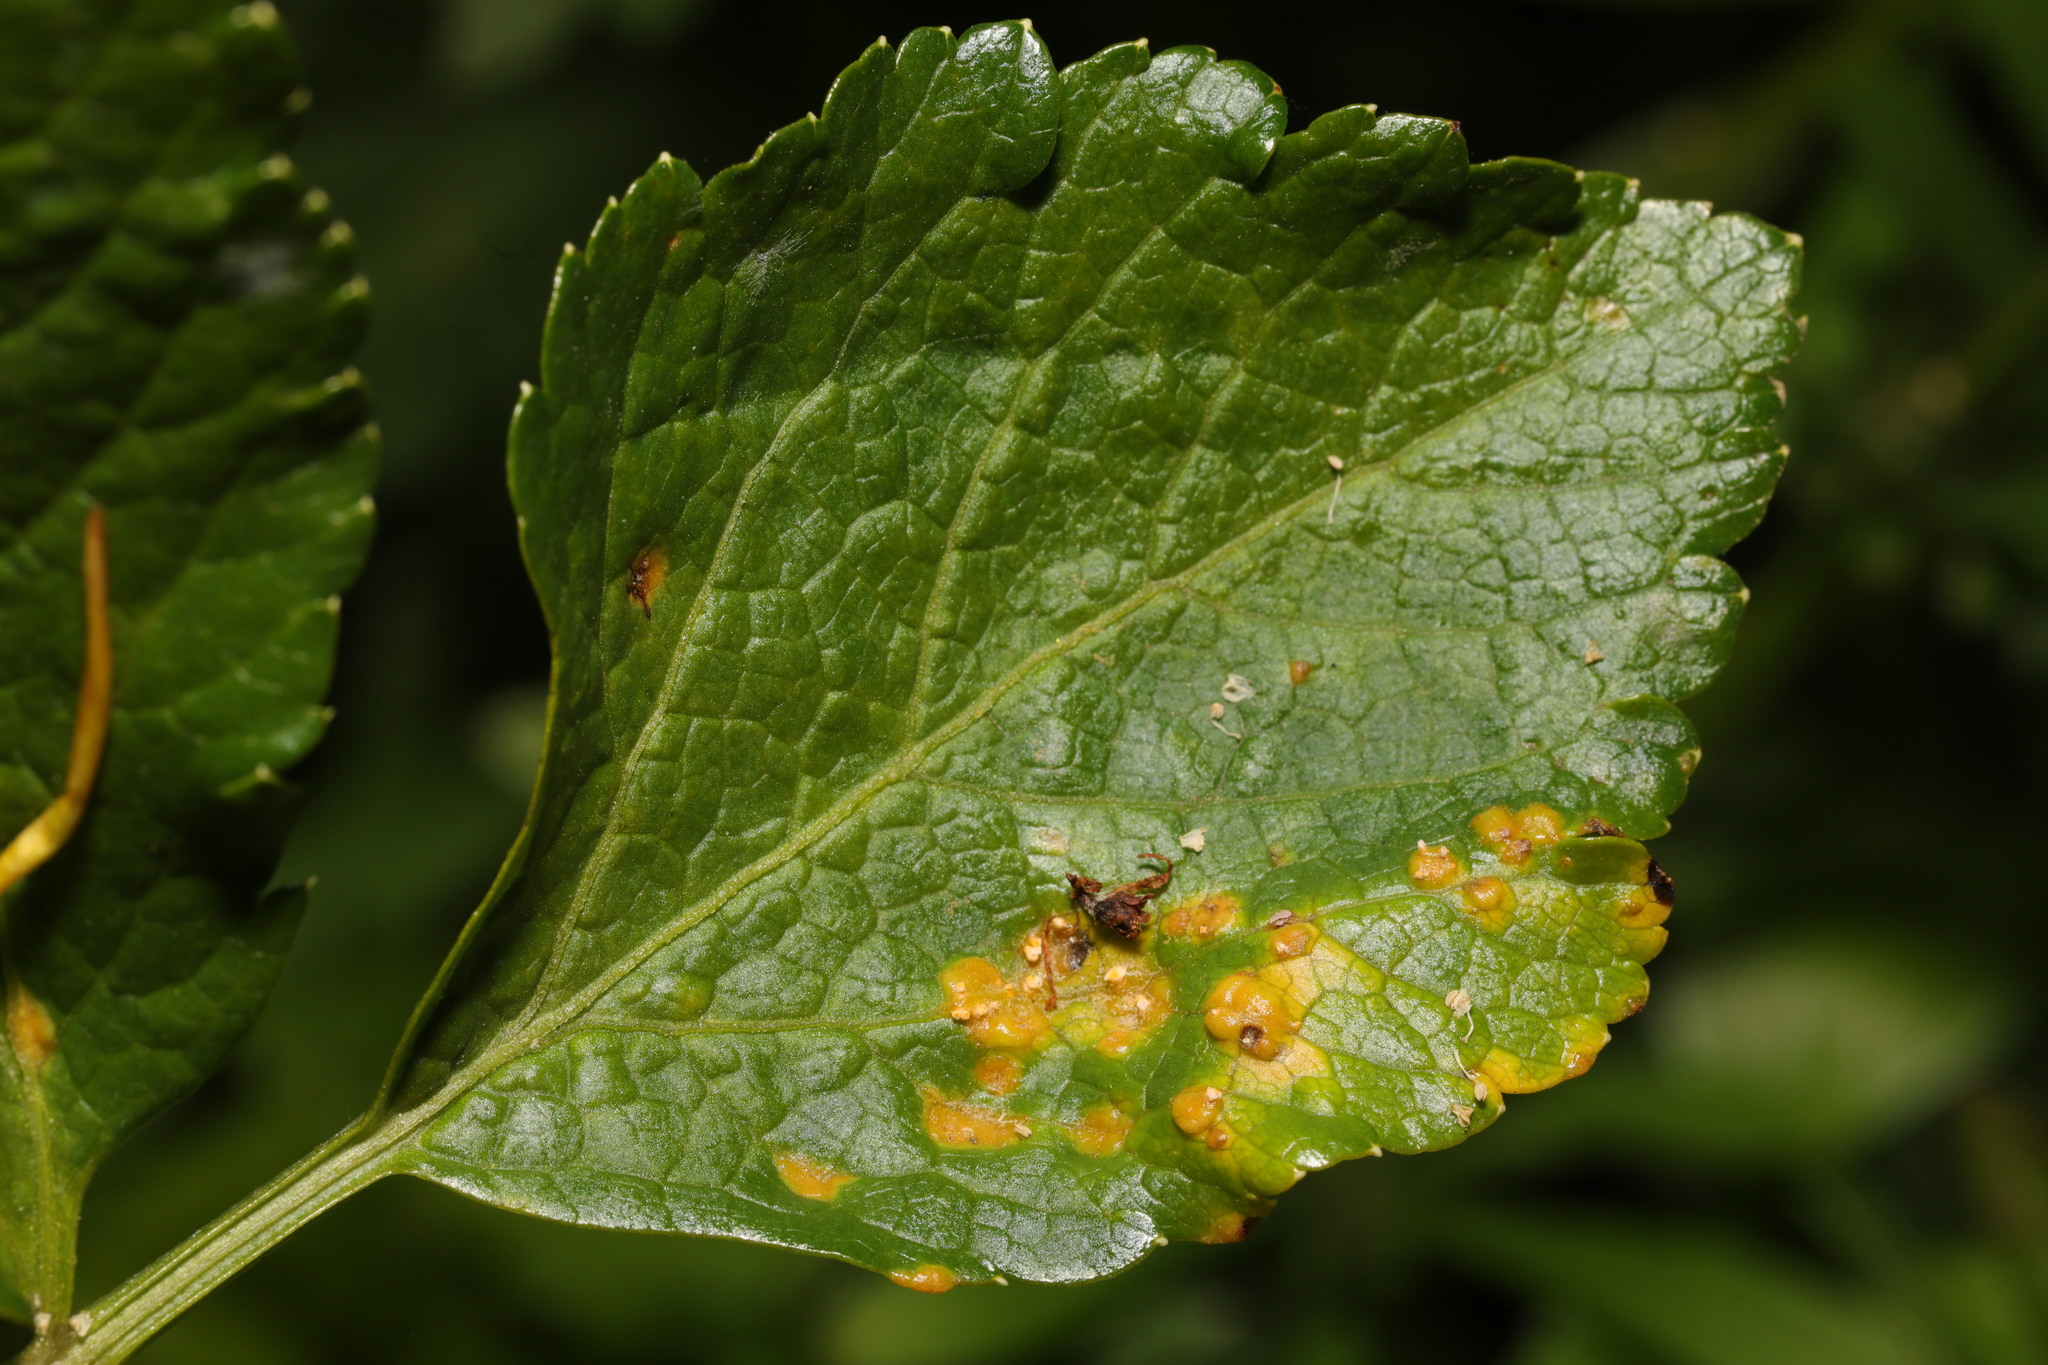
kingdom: Fungi
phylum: Basidiomycota
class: Pucciniomycetes
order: Pucciniales
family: Pucciniaceae
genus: Puccinia
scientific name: Puccinia smyrnii
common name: Alexanders rust
